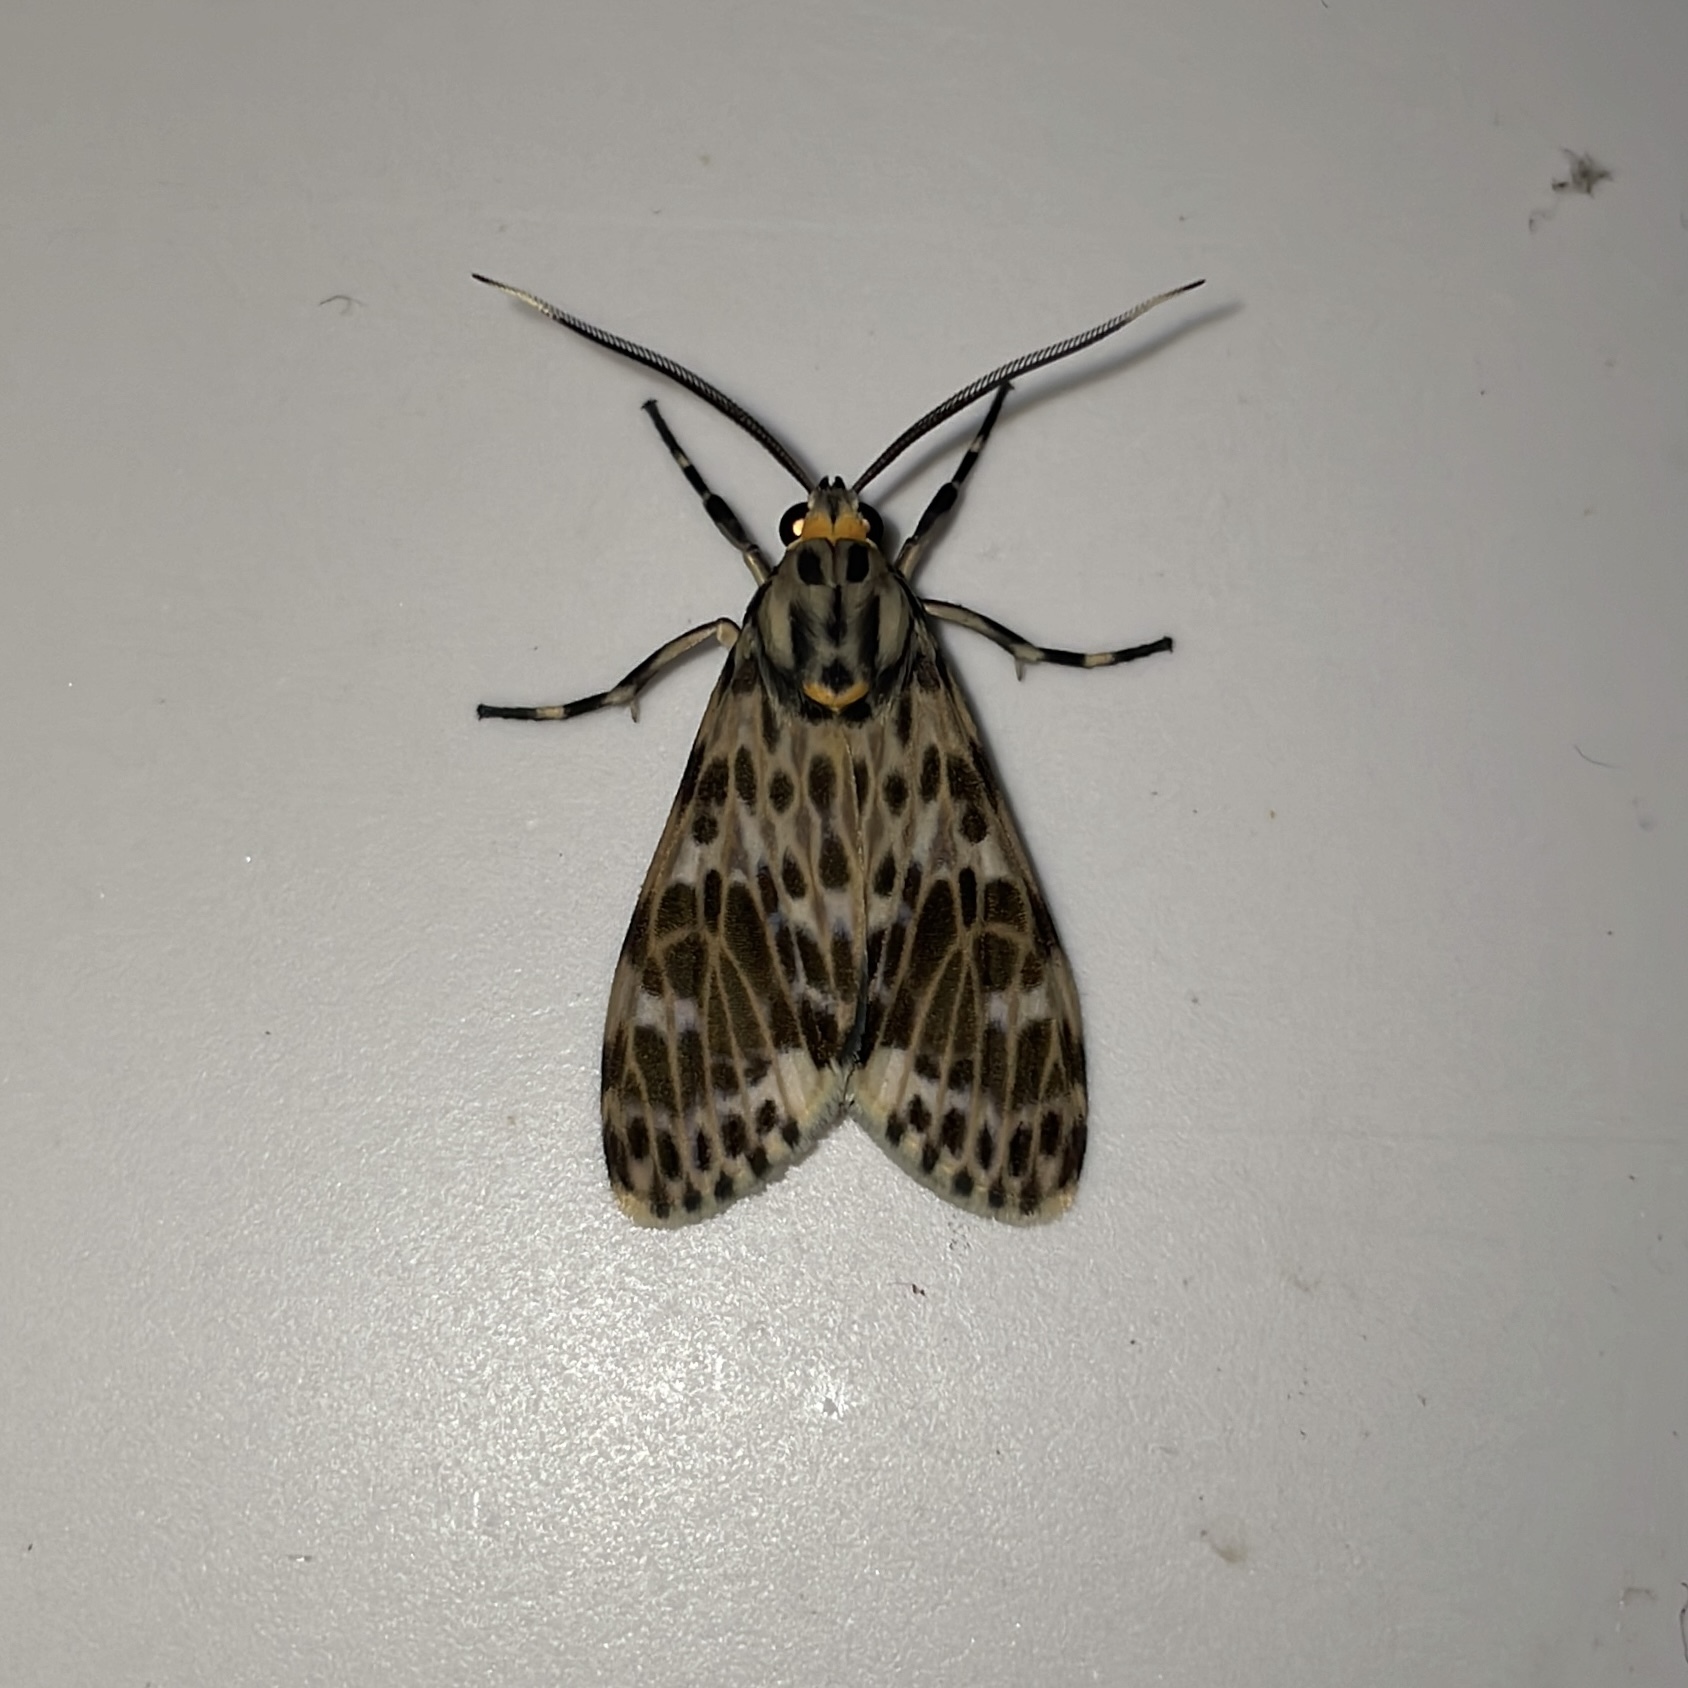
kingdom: Animalia
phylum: Arthropoda
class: Insecta
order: Lepidoptera
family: Erebidae
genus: Eucereon
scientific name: Eucereon punctata
